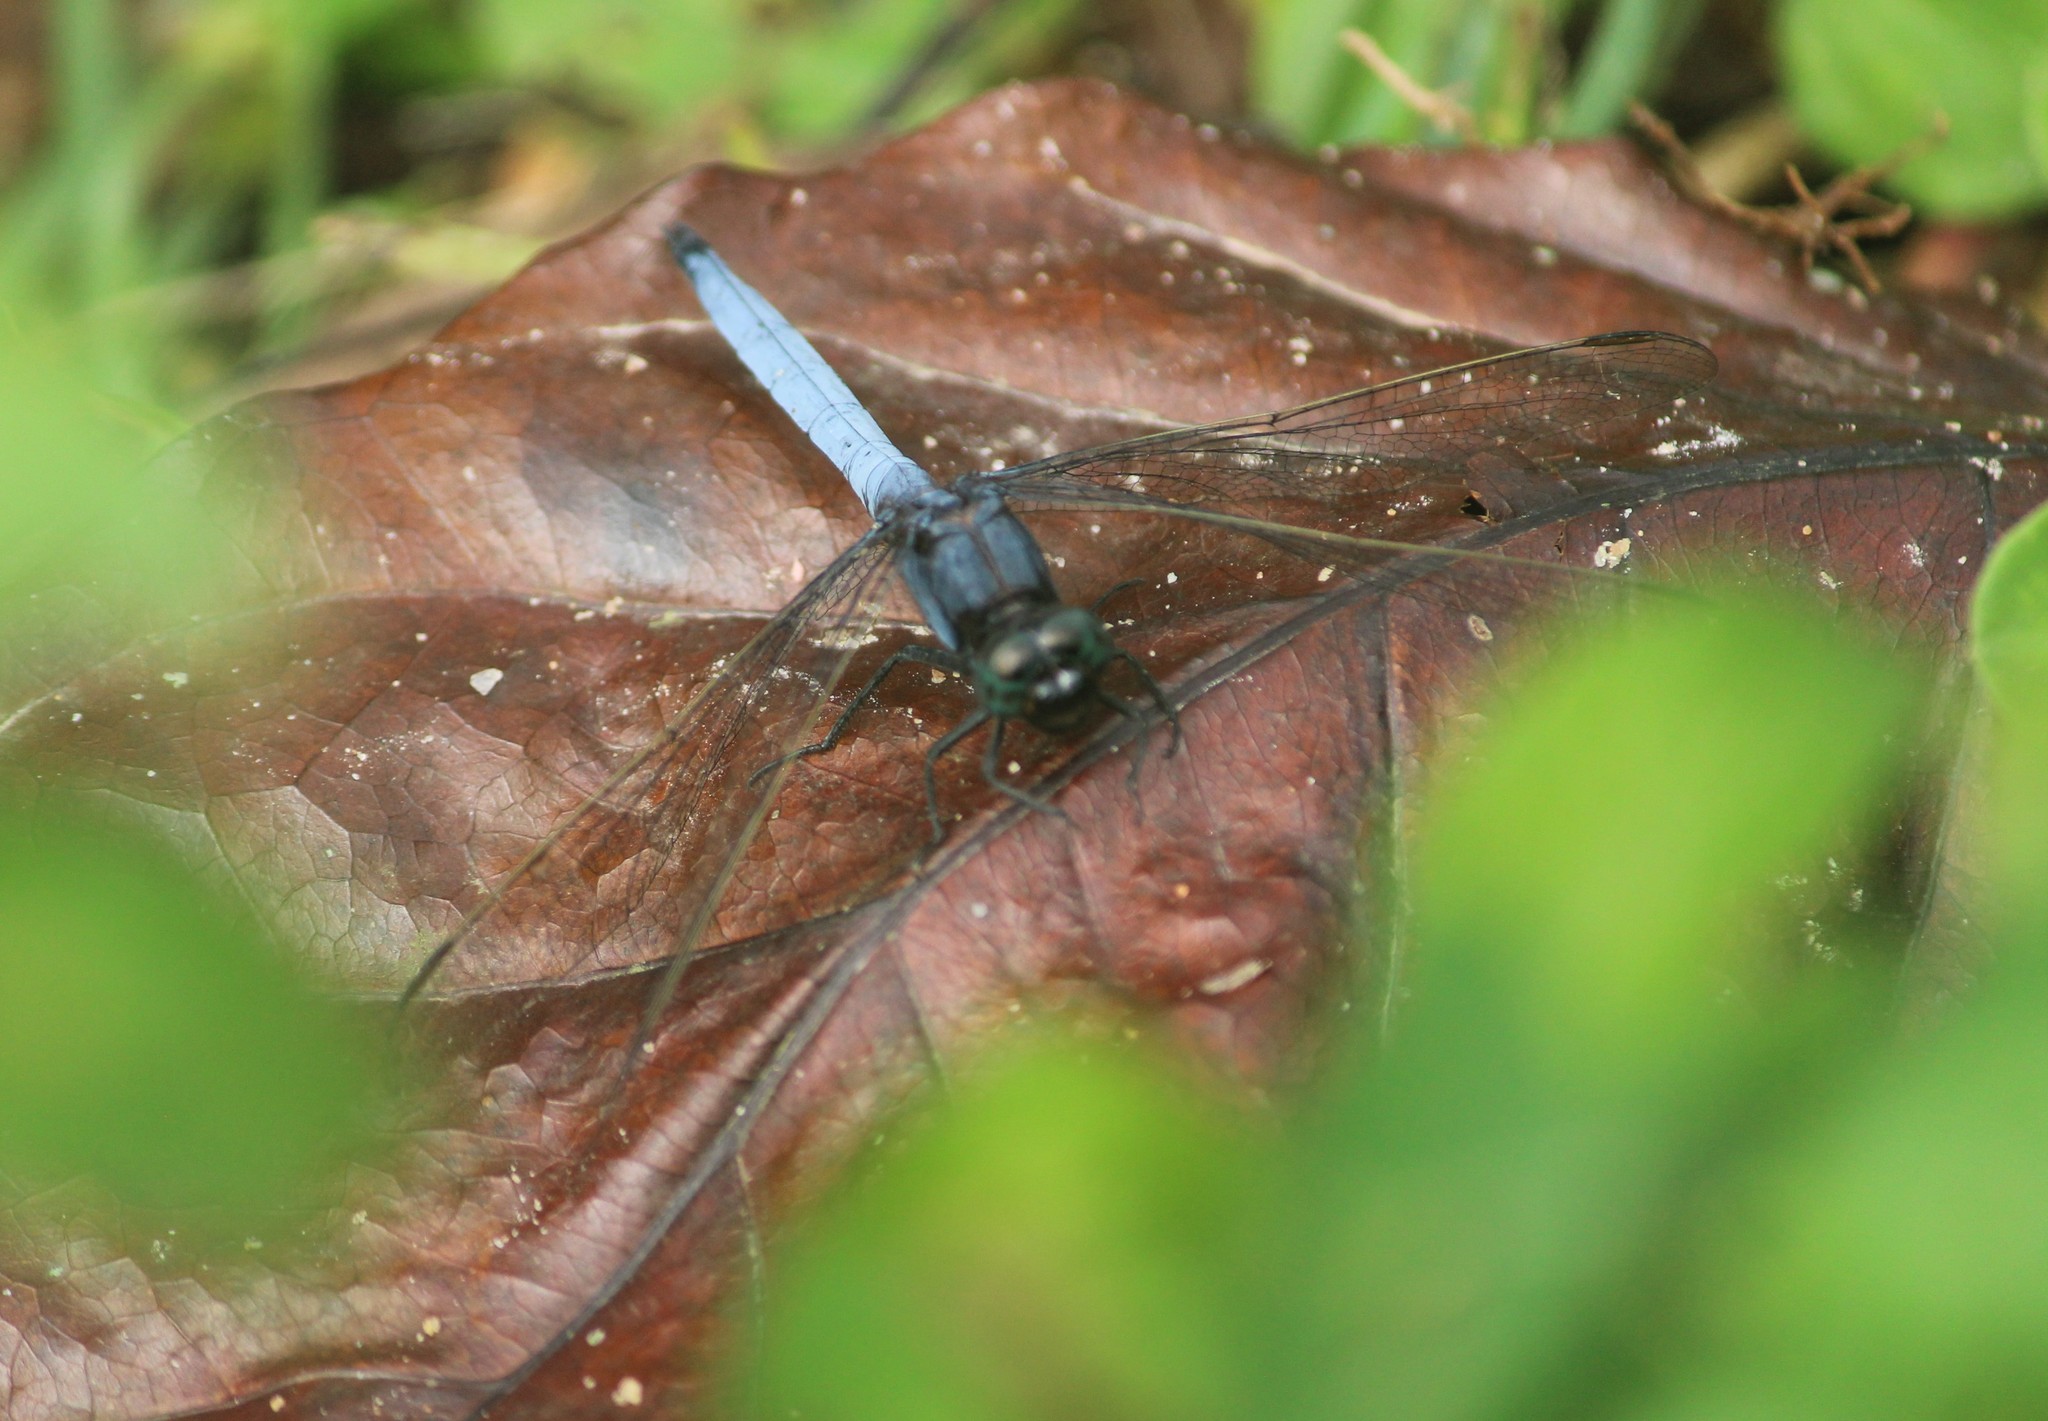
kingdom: Animalia
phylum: Arthropoda
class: Insecta
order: Odonata
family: Libellulidae
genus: Orthetrum
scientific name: Orthetrum glaucum
